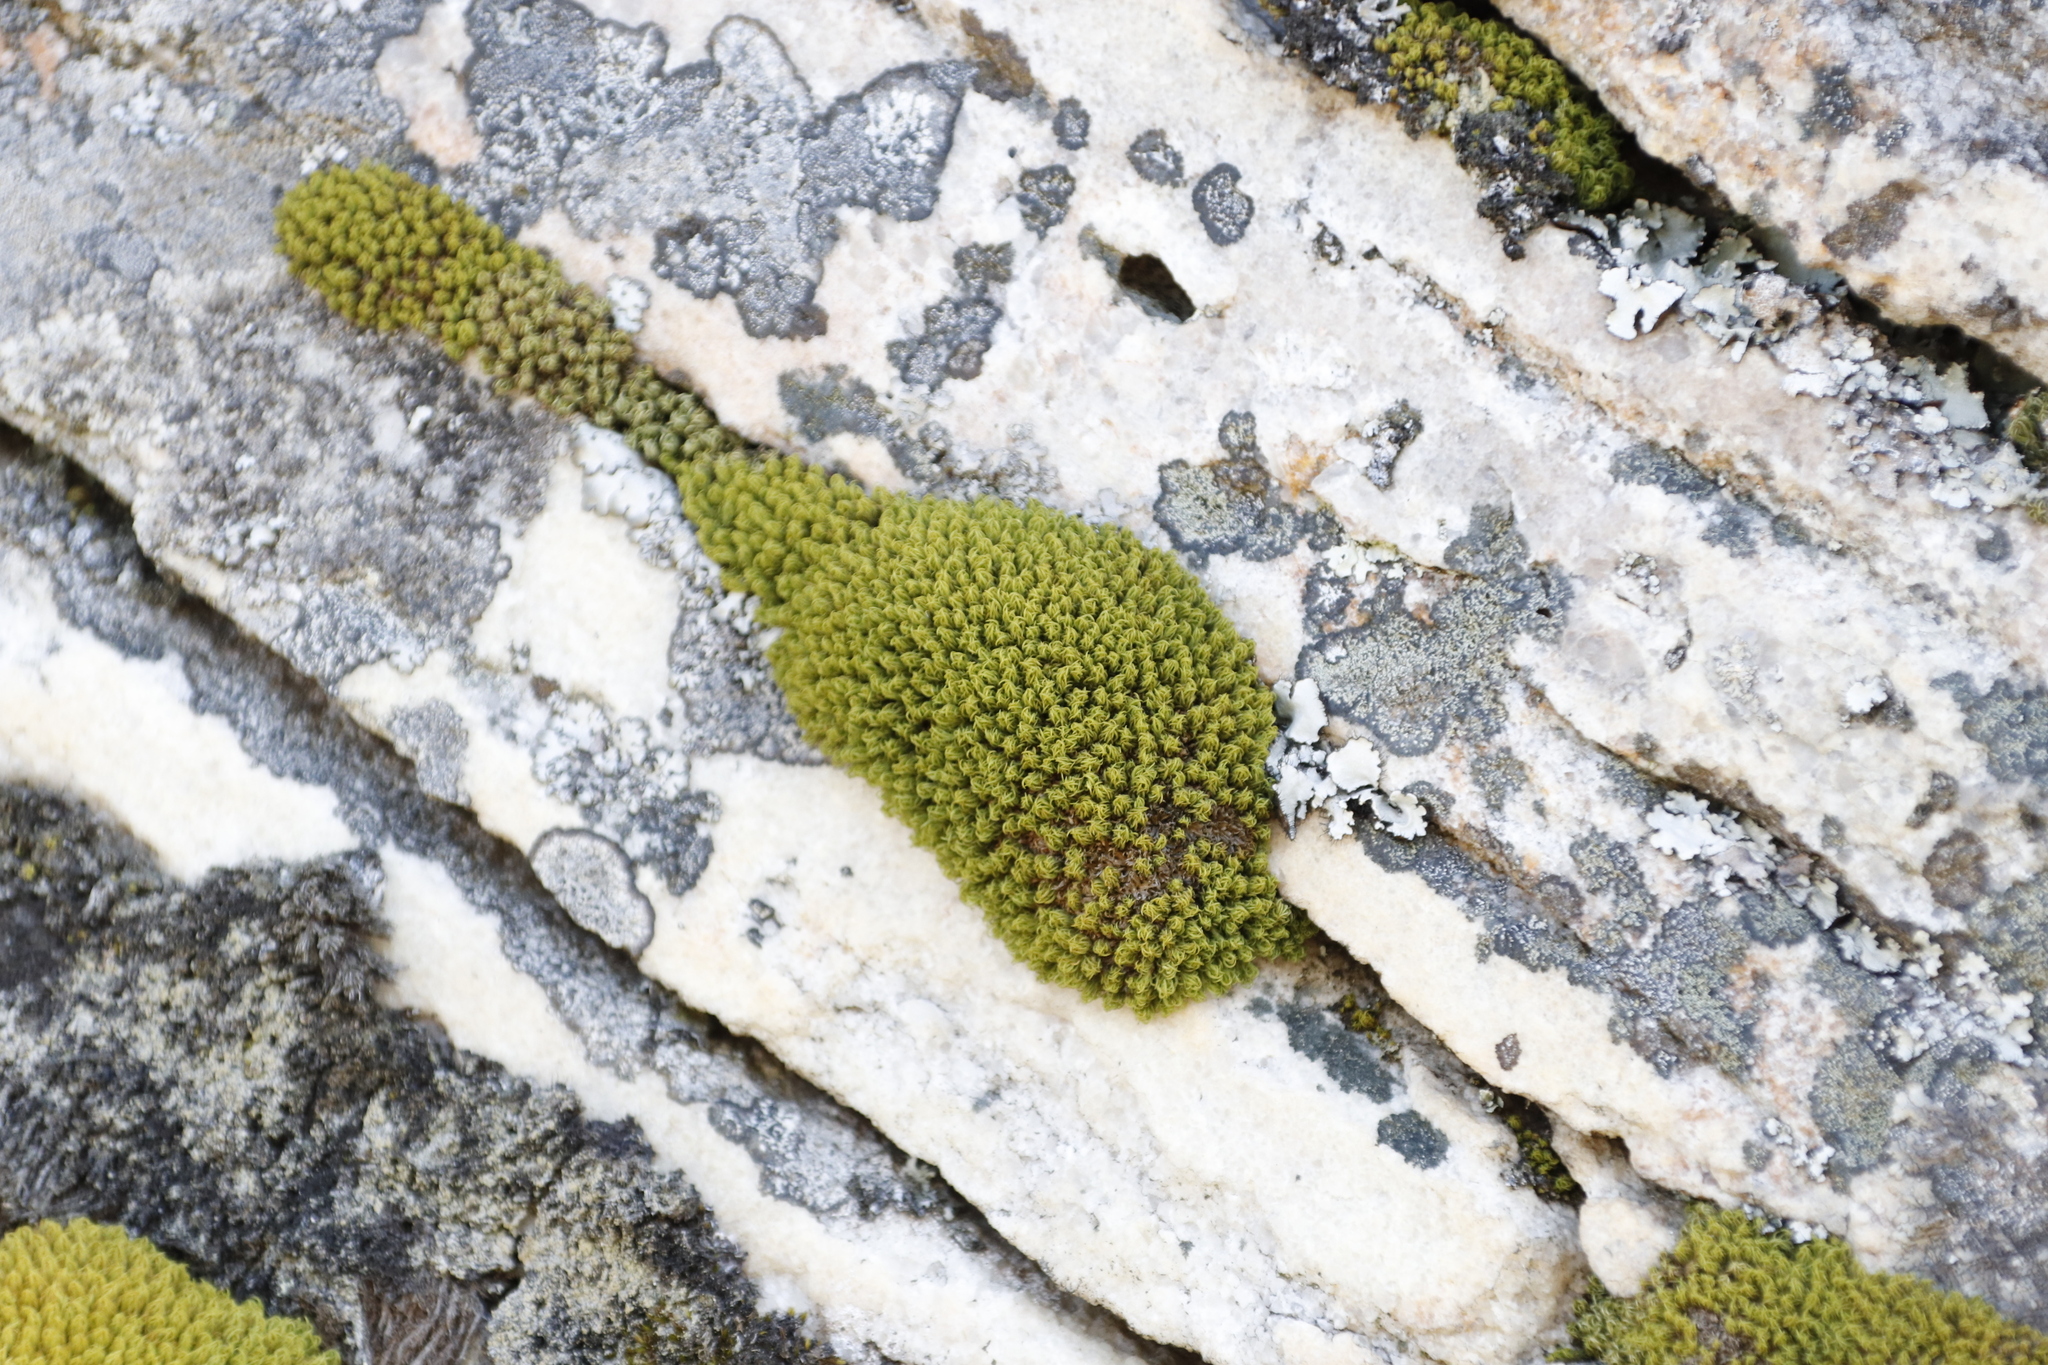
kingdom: Plantae
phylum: Bryophyta
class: Bryopsida
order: Dicranales
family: Hypodontiaceae
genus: Hypodontium
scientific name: Hypodontium pomiforme
